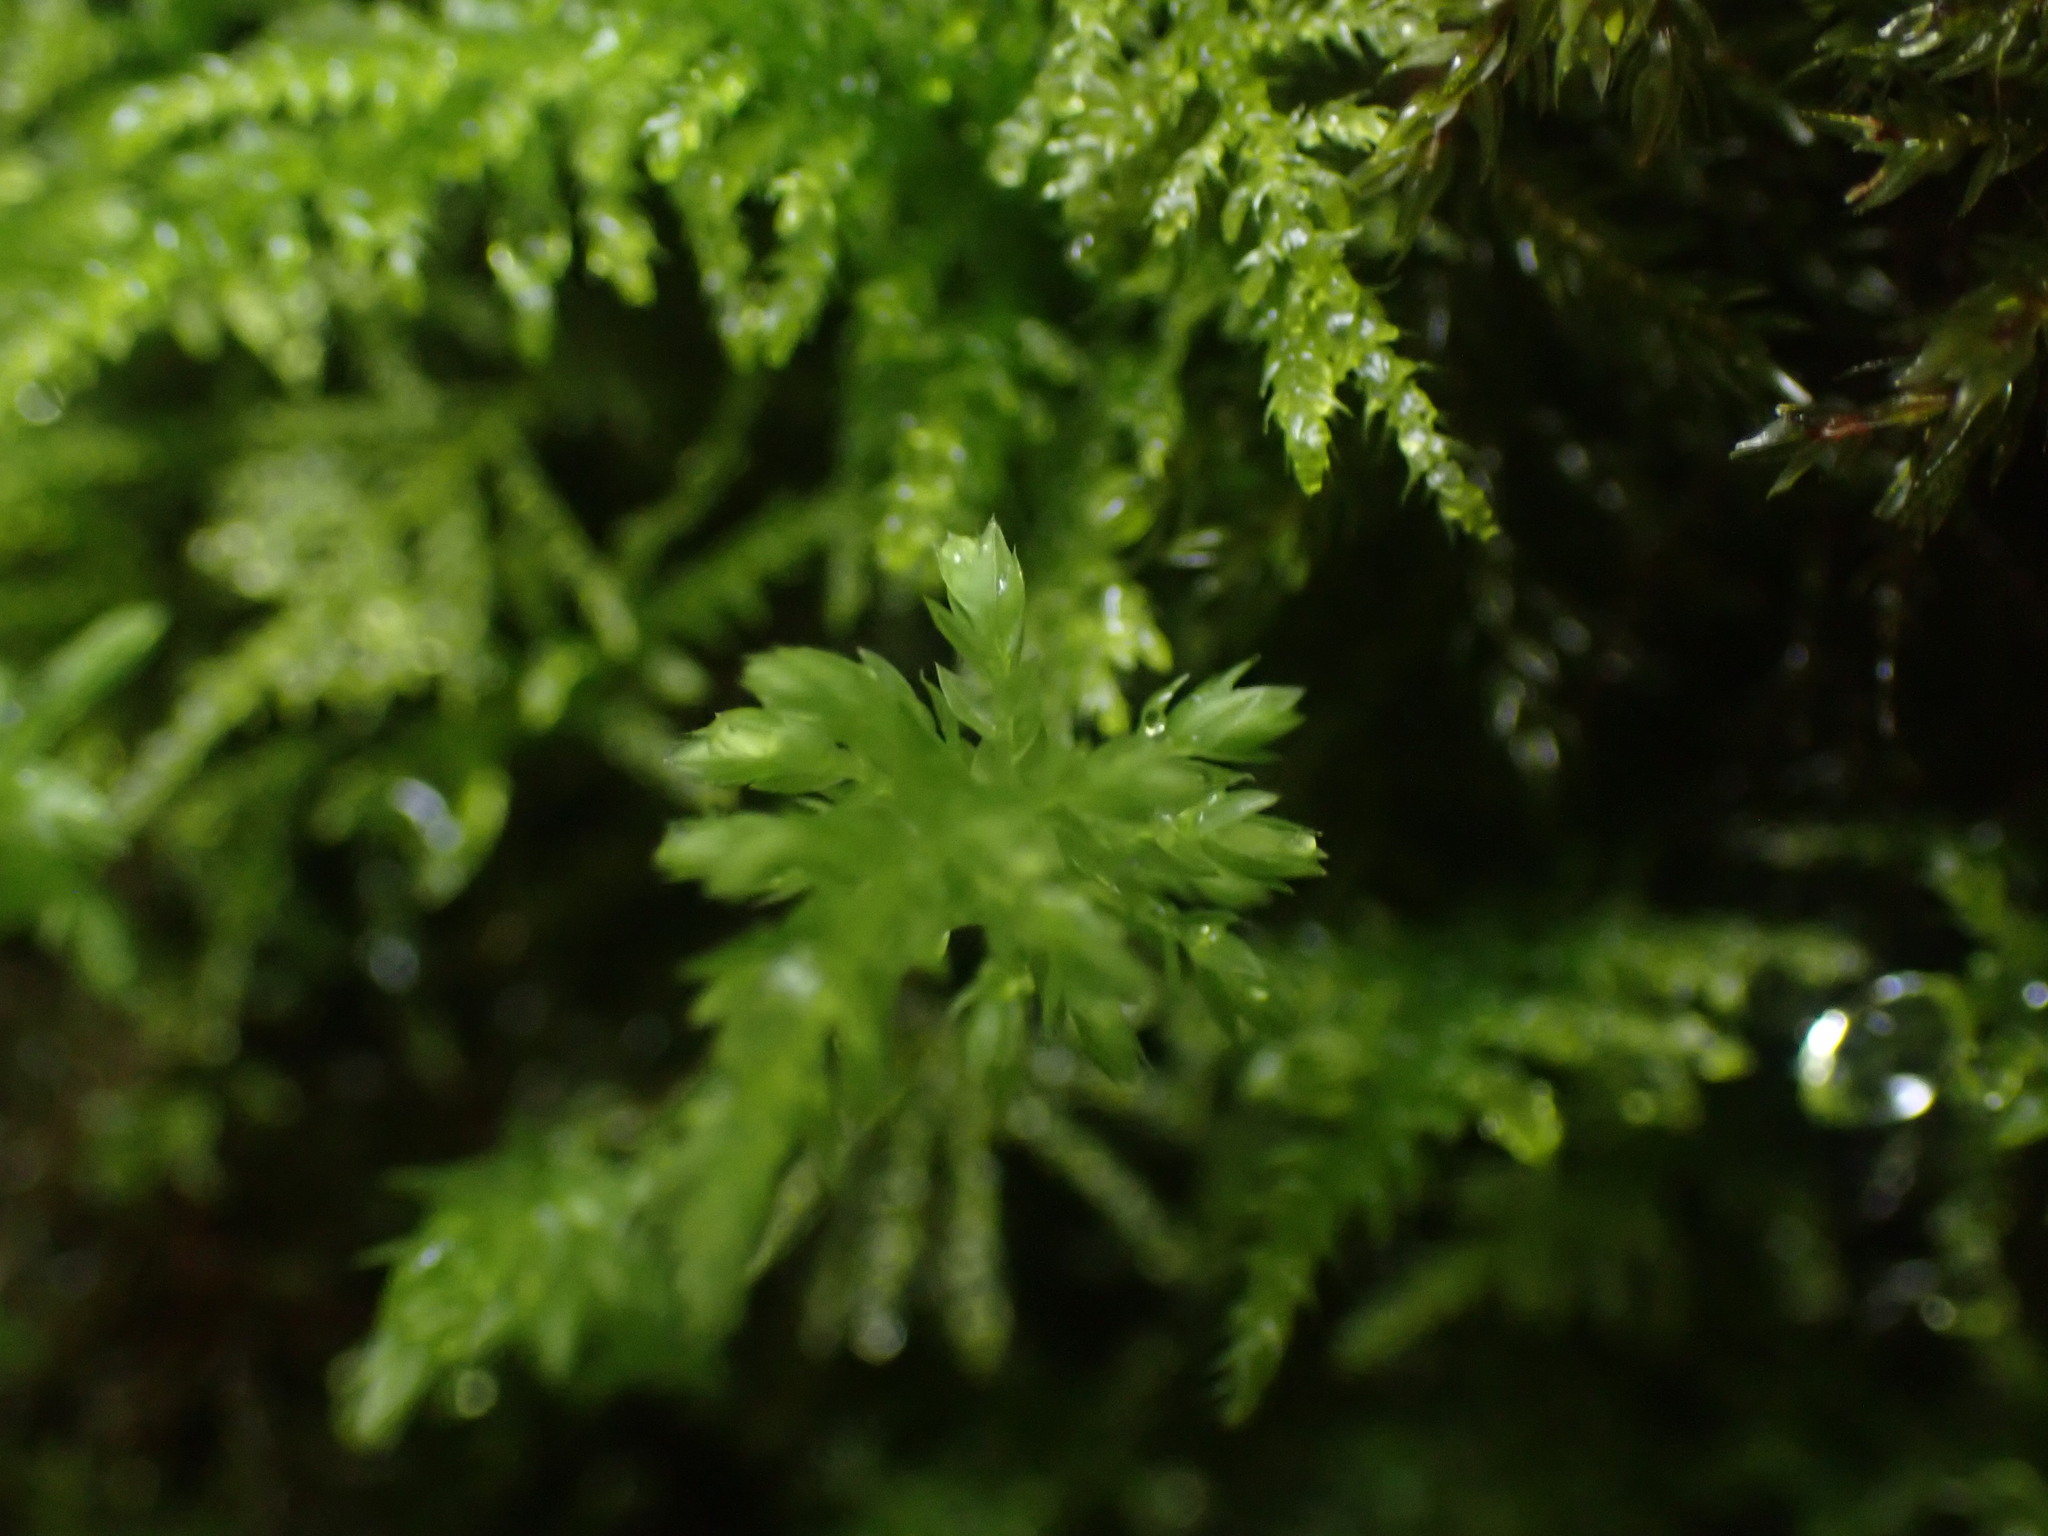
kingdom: Plantae
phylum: Bryophyta
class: Bryopsida
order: Bryales
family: Mniaceae
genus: Leucolepis
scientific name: Leucolepis acanthoneura
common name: Leucolepis umbrella moss
